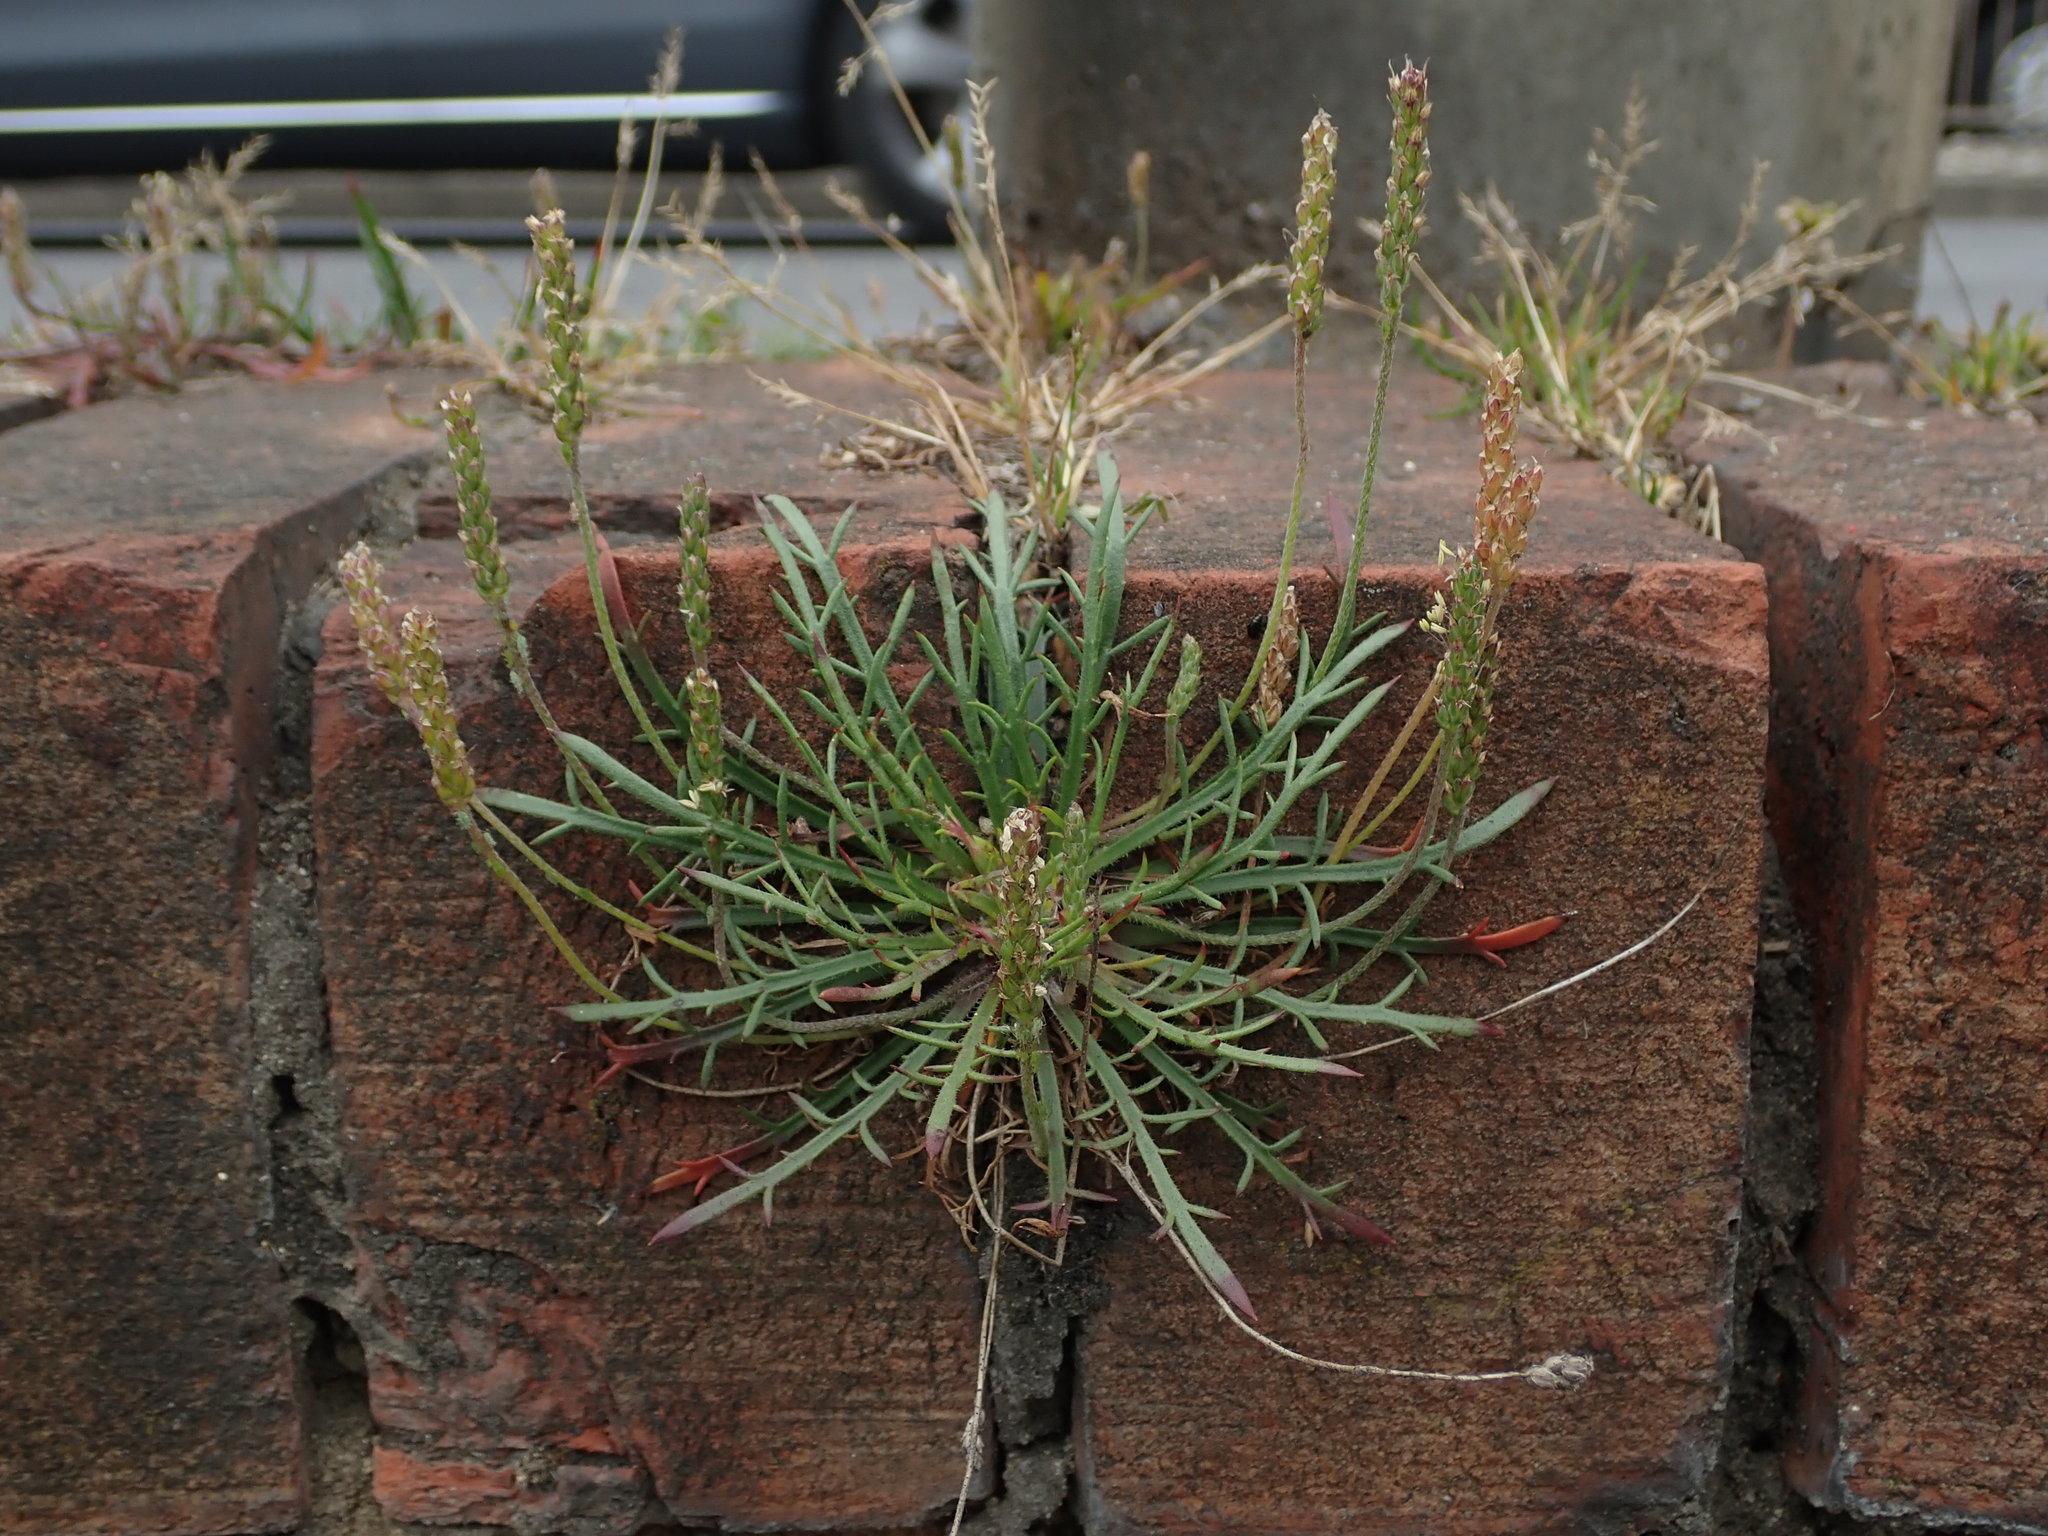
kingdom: Plantae
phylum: Tracheophyta
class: Magnoliopsida
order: Lamiales
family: Plantaginaceae
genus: Plantago
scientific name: Plantago coronopus
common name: Buck's-horn plantain
